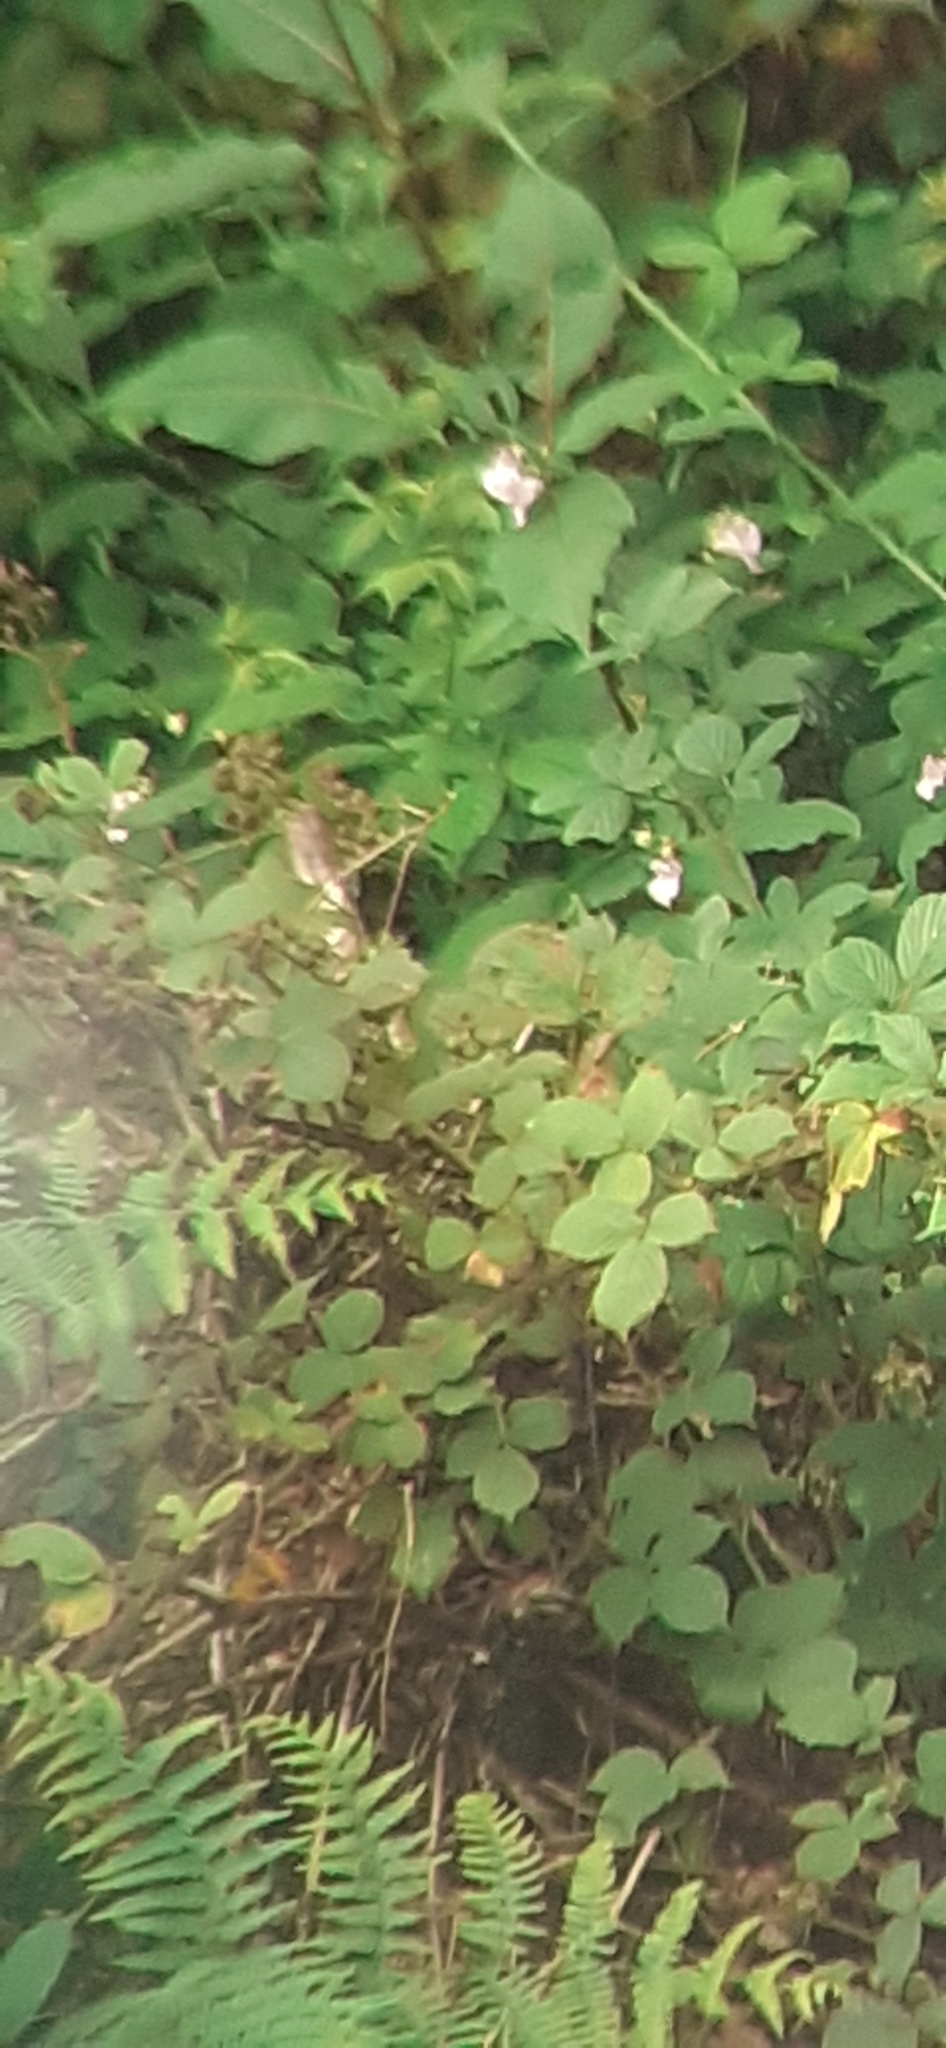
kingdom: Plantae
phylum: Tracheophyta
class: Magnoliopsida
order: Ericales
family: Balsaminaceae
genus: Impatiens
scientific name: Impatiens glandulifera
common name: Himalayan balsam
